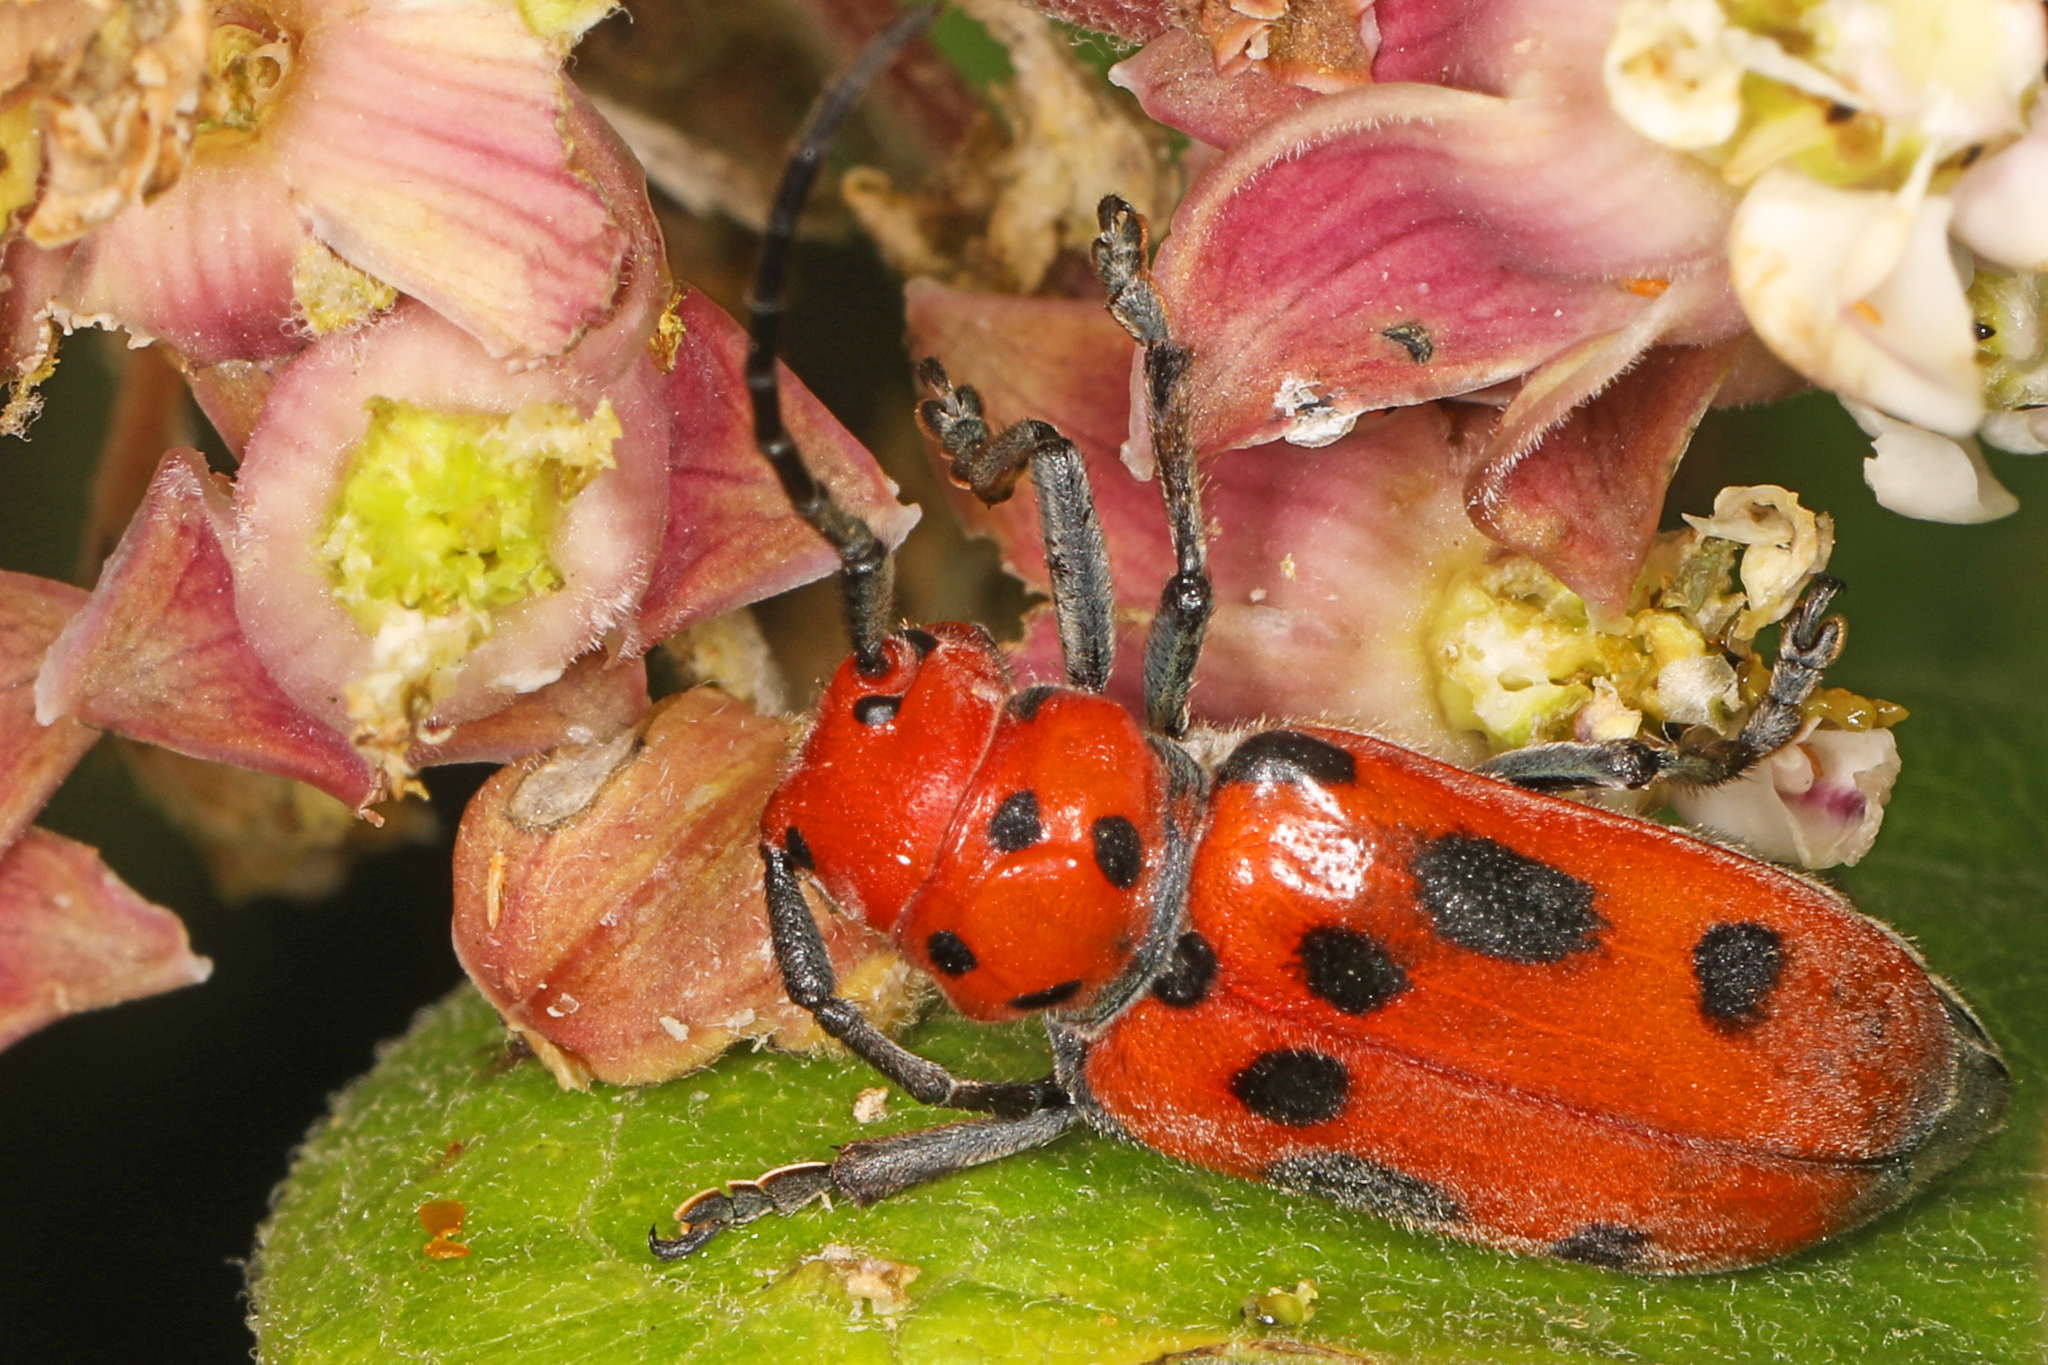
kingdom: Animalia
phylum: Arthropoda
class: Insecta
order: Coleoptera
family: Cerambycidae
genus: Tetraopes
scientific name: Tetraopes tetrophthalmus
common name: Red milkweed beetle
